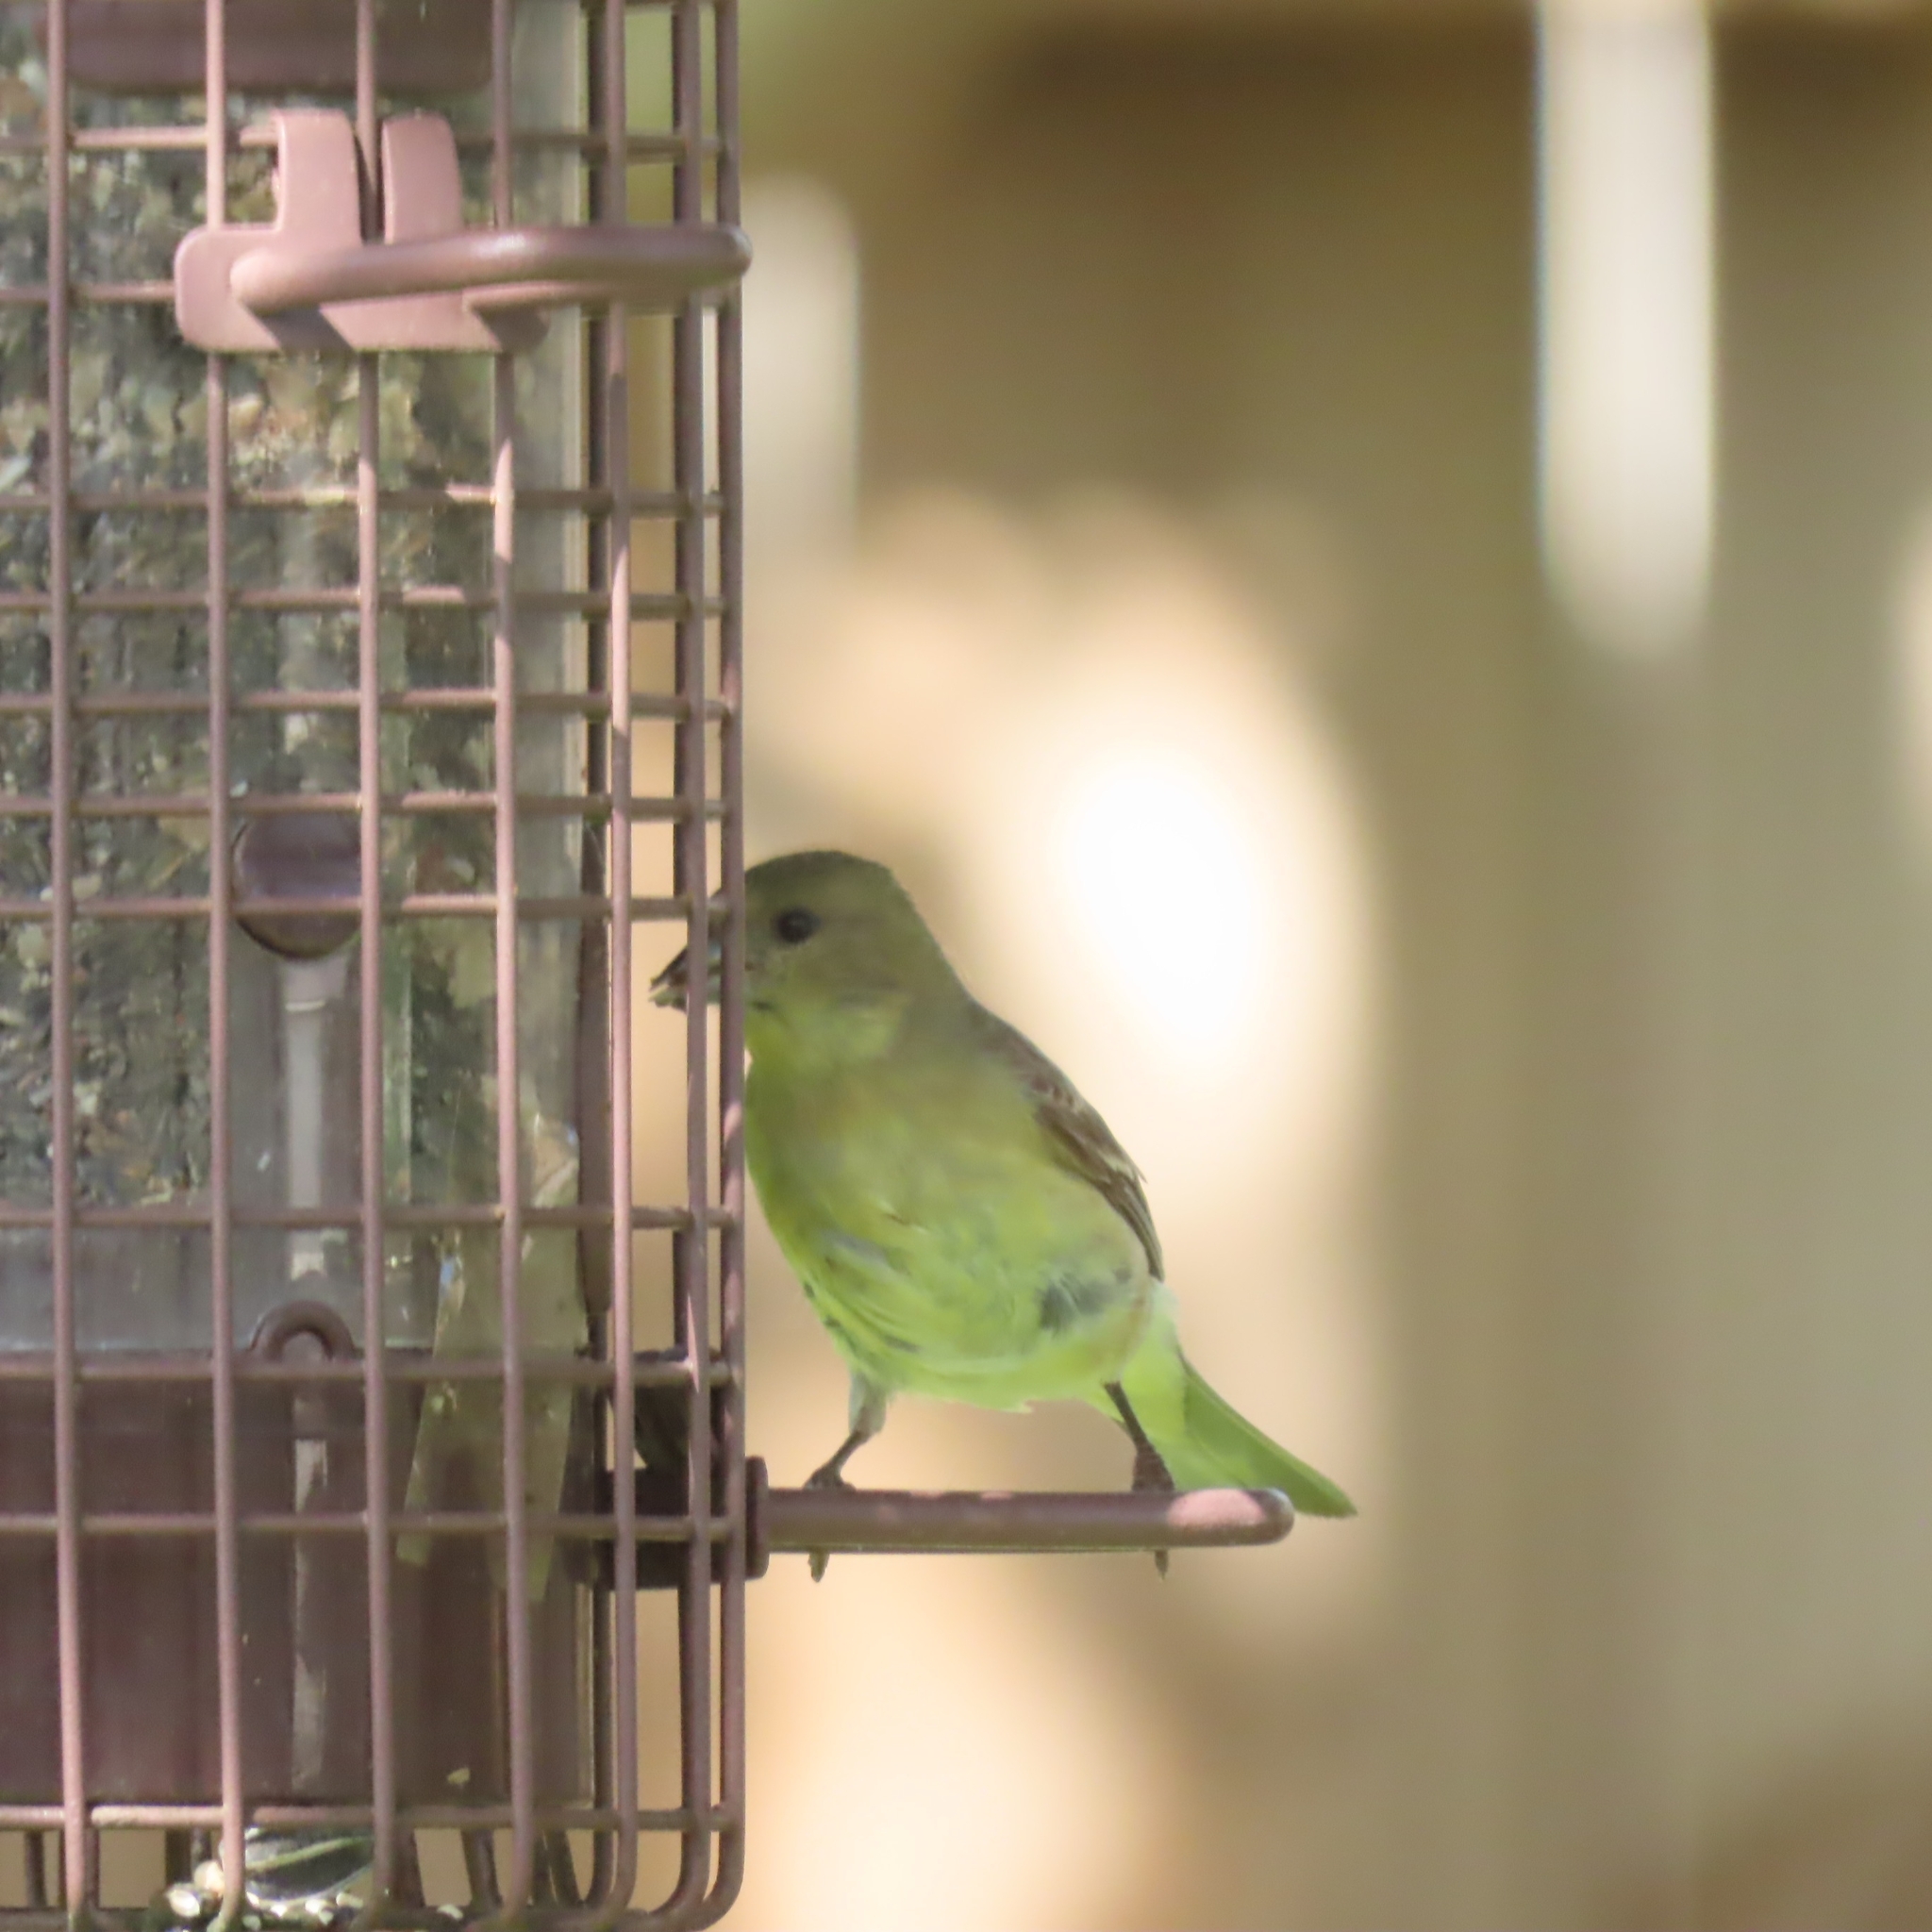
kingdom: Animalia
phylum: Chordata
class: Aves
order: Passeriformes
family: Fringillidae
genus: Spinus
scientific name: Spinus psaltria
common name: Lesser goldfinch
